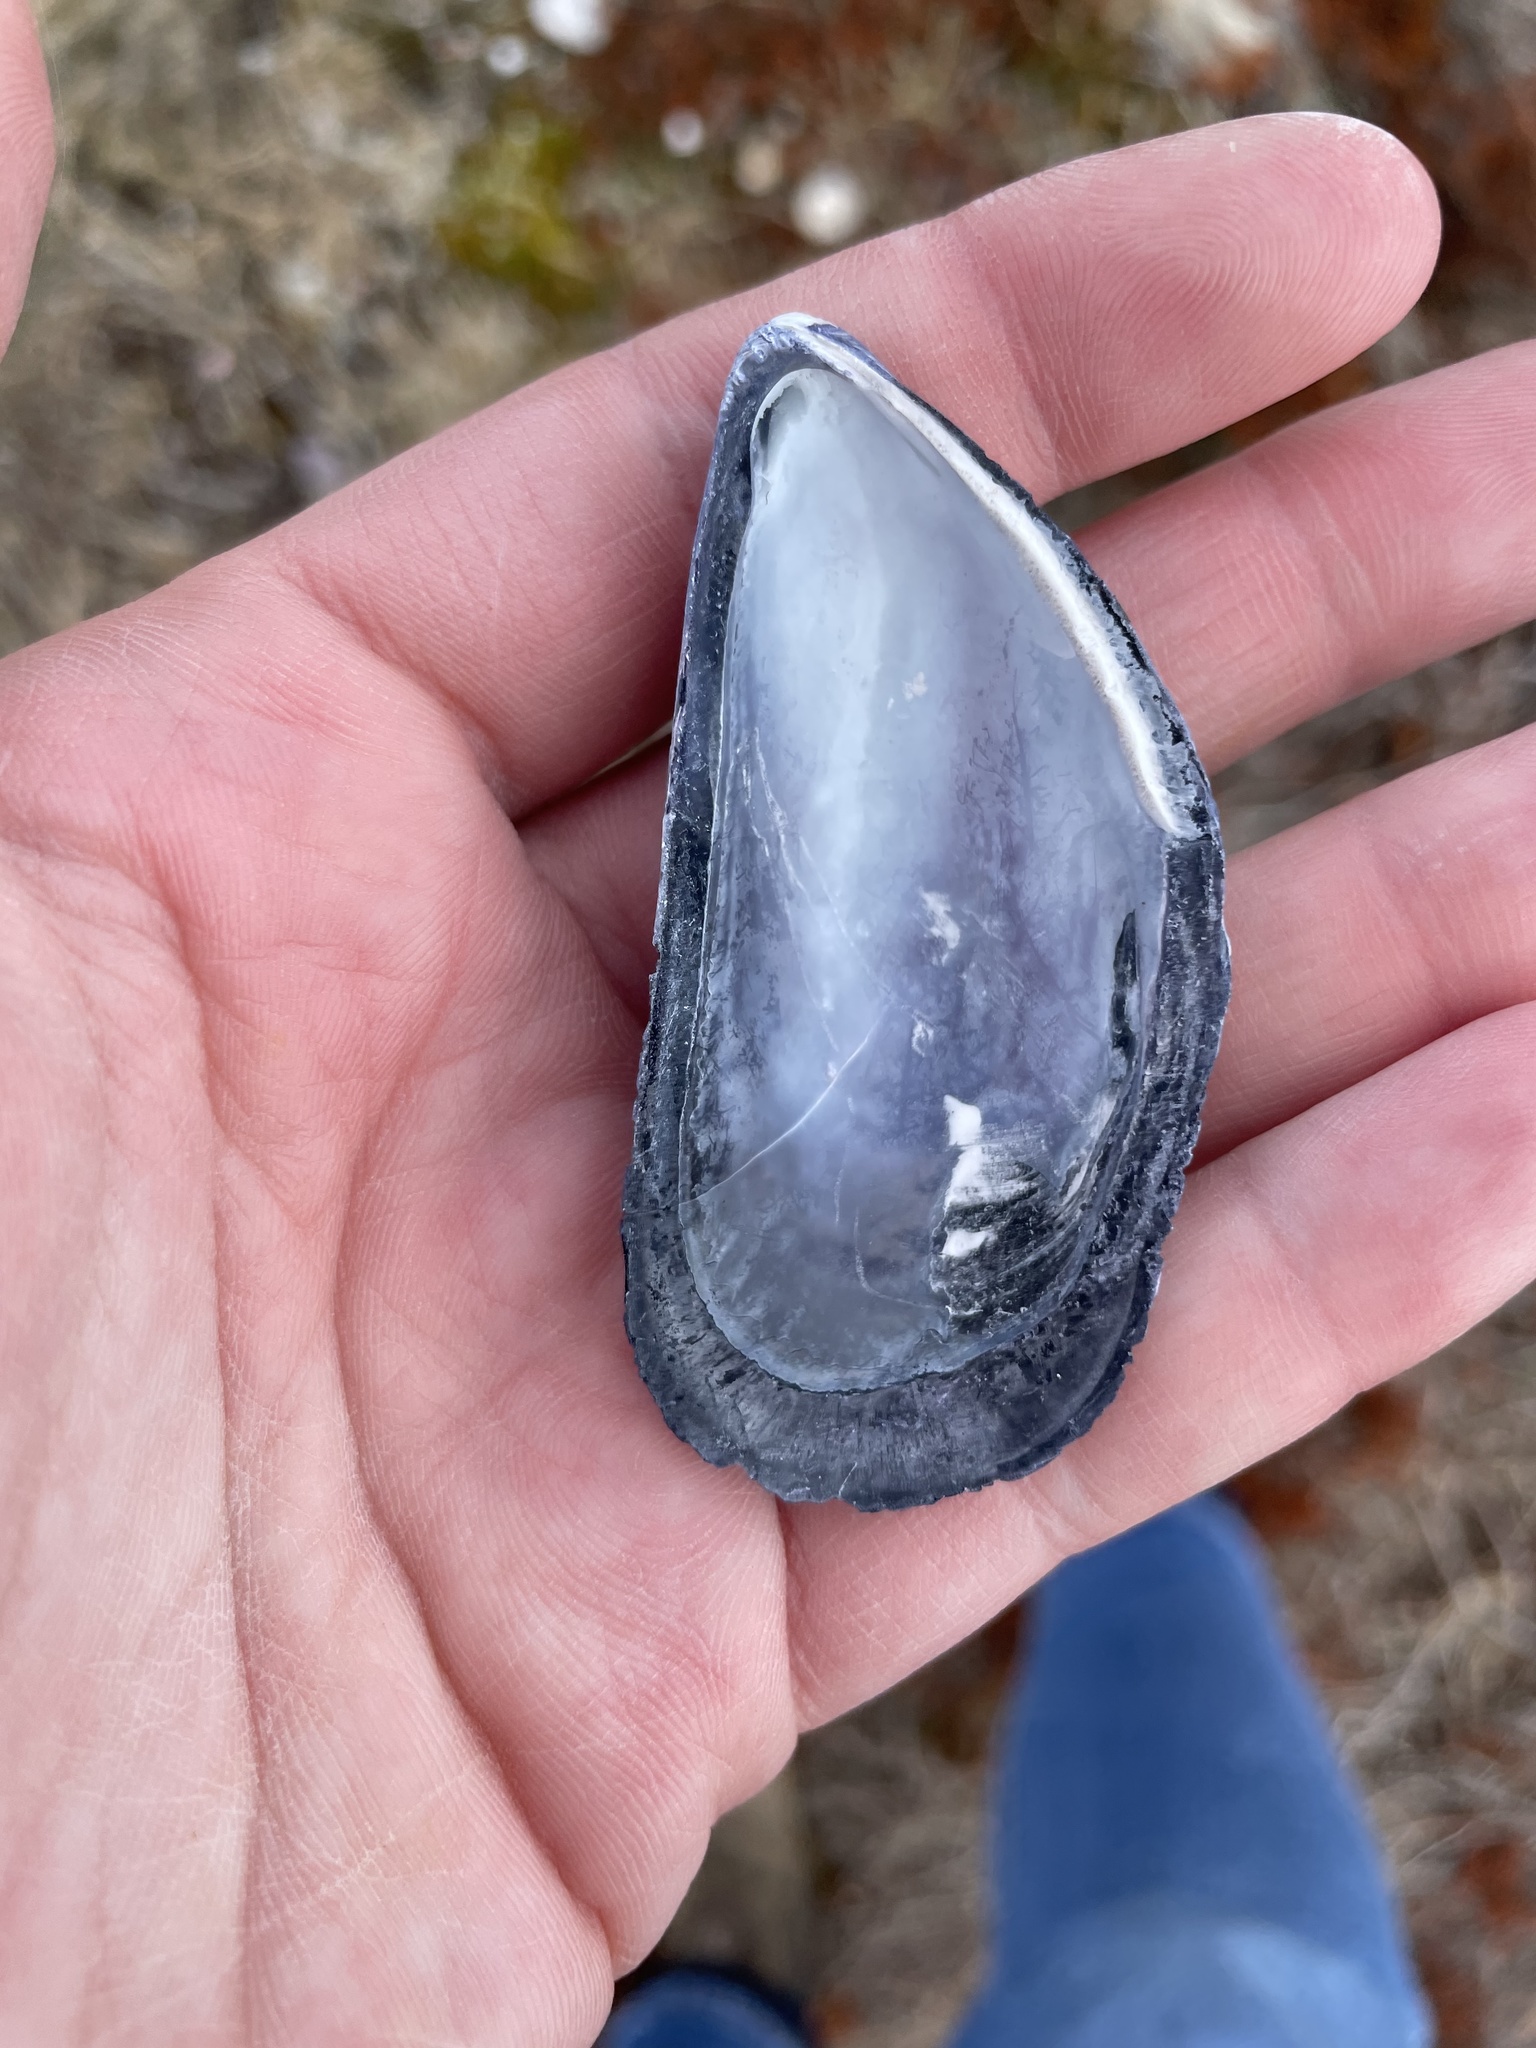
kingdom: Animalia
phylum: Mollusca
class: Bivalvia
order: Mytilida
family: Mytilidae
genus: Mytilus
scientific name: Mytilus edulis
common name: Blue mussel
